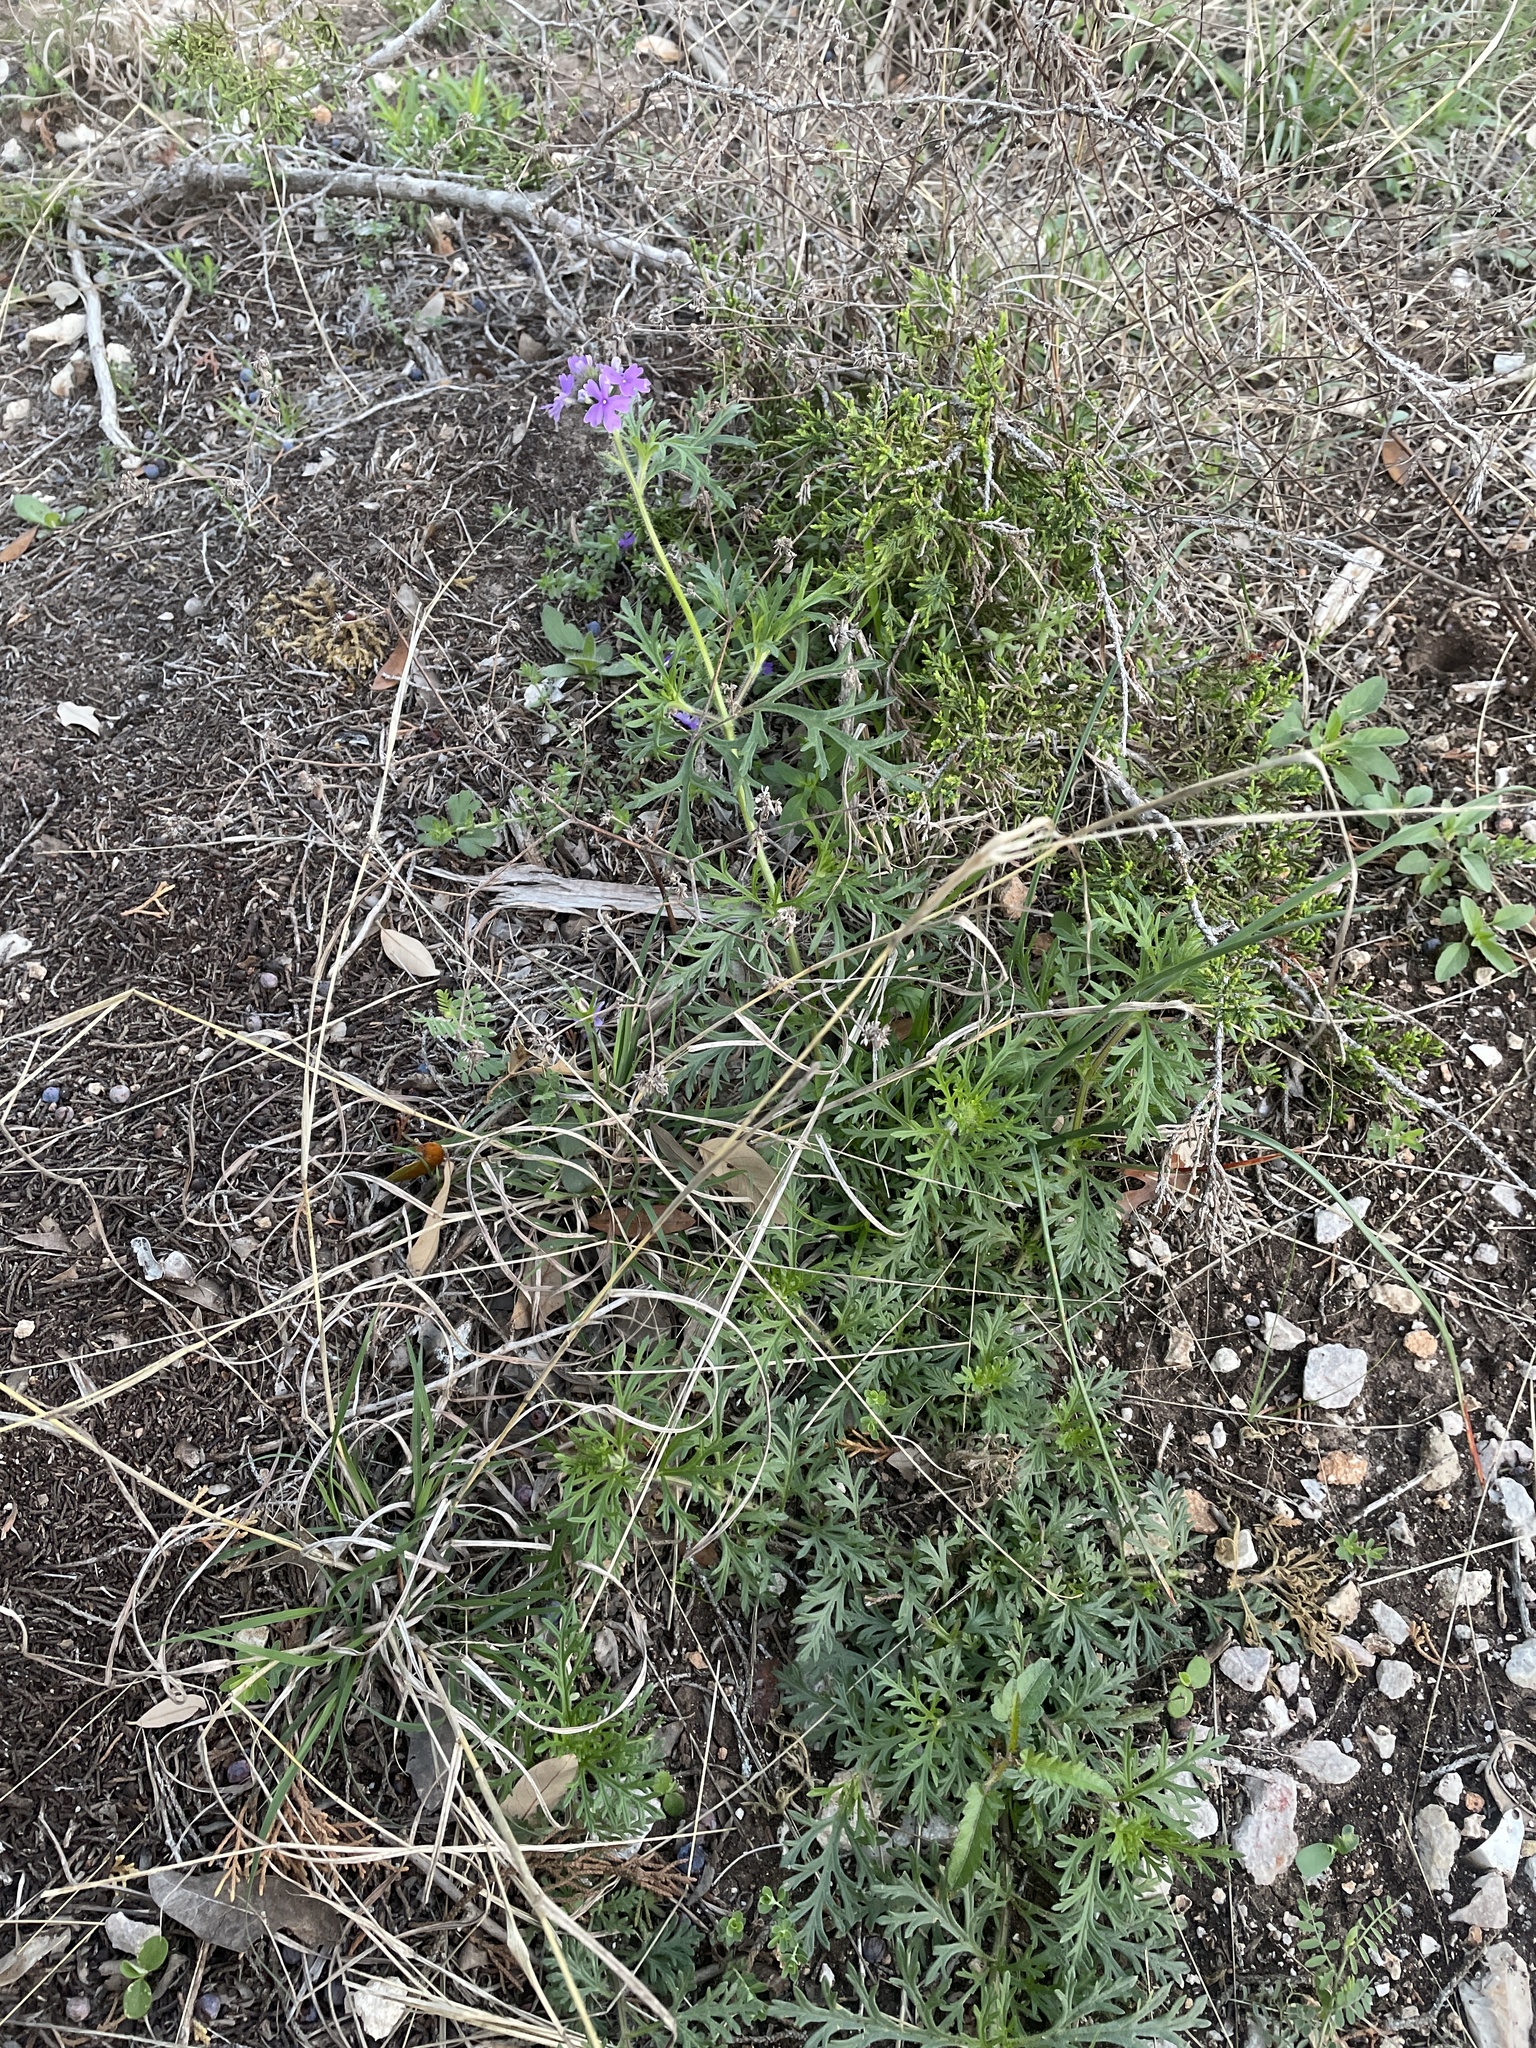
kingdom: Plantae
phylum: Tracheophyta
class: Magnoliopsida
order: Lamiales
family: Verbenaceae
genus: Verbena
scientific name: Verbena bipinnatifida
